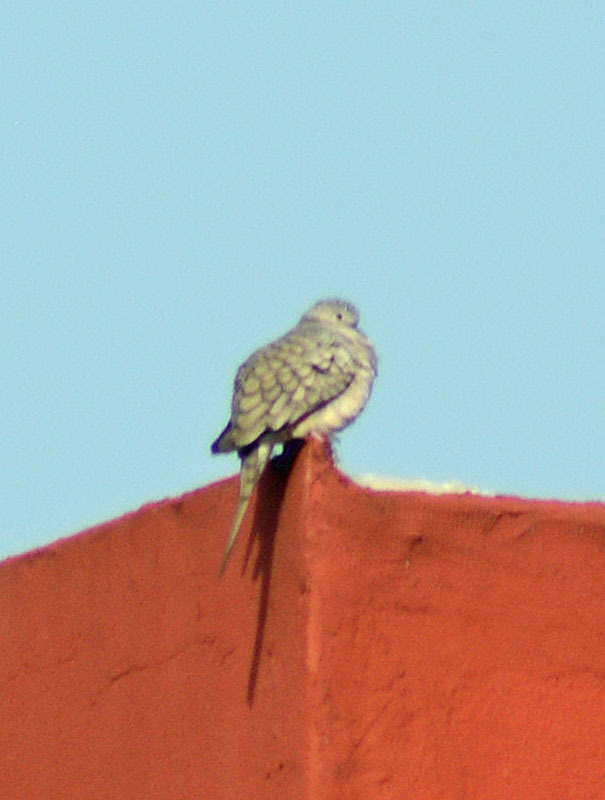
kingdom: Animalia
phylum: Chordata
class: Aves
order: Columbiformes
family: Columbidae
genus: Columbina
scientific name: Columbina inca
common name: Inca dove
